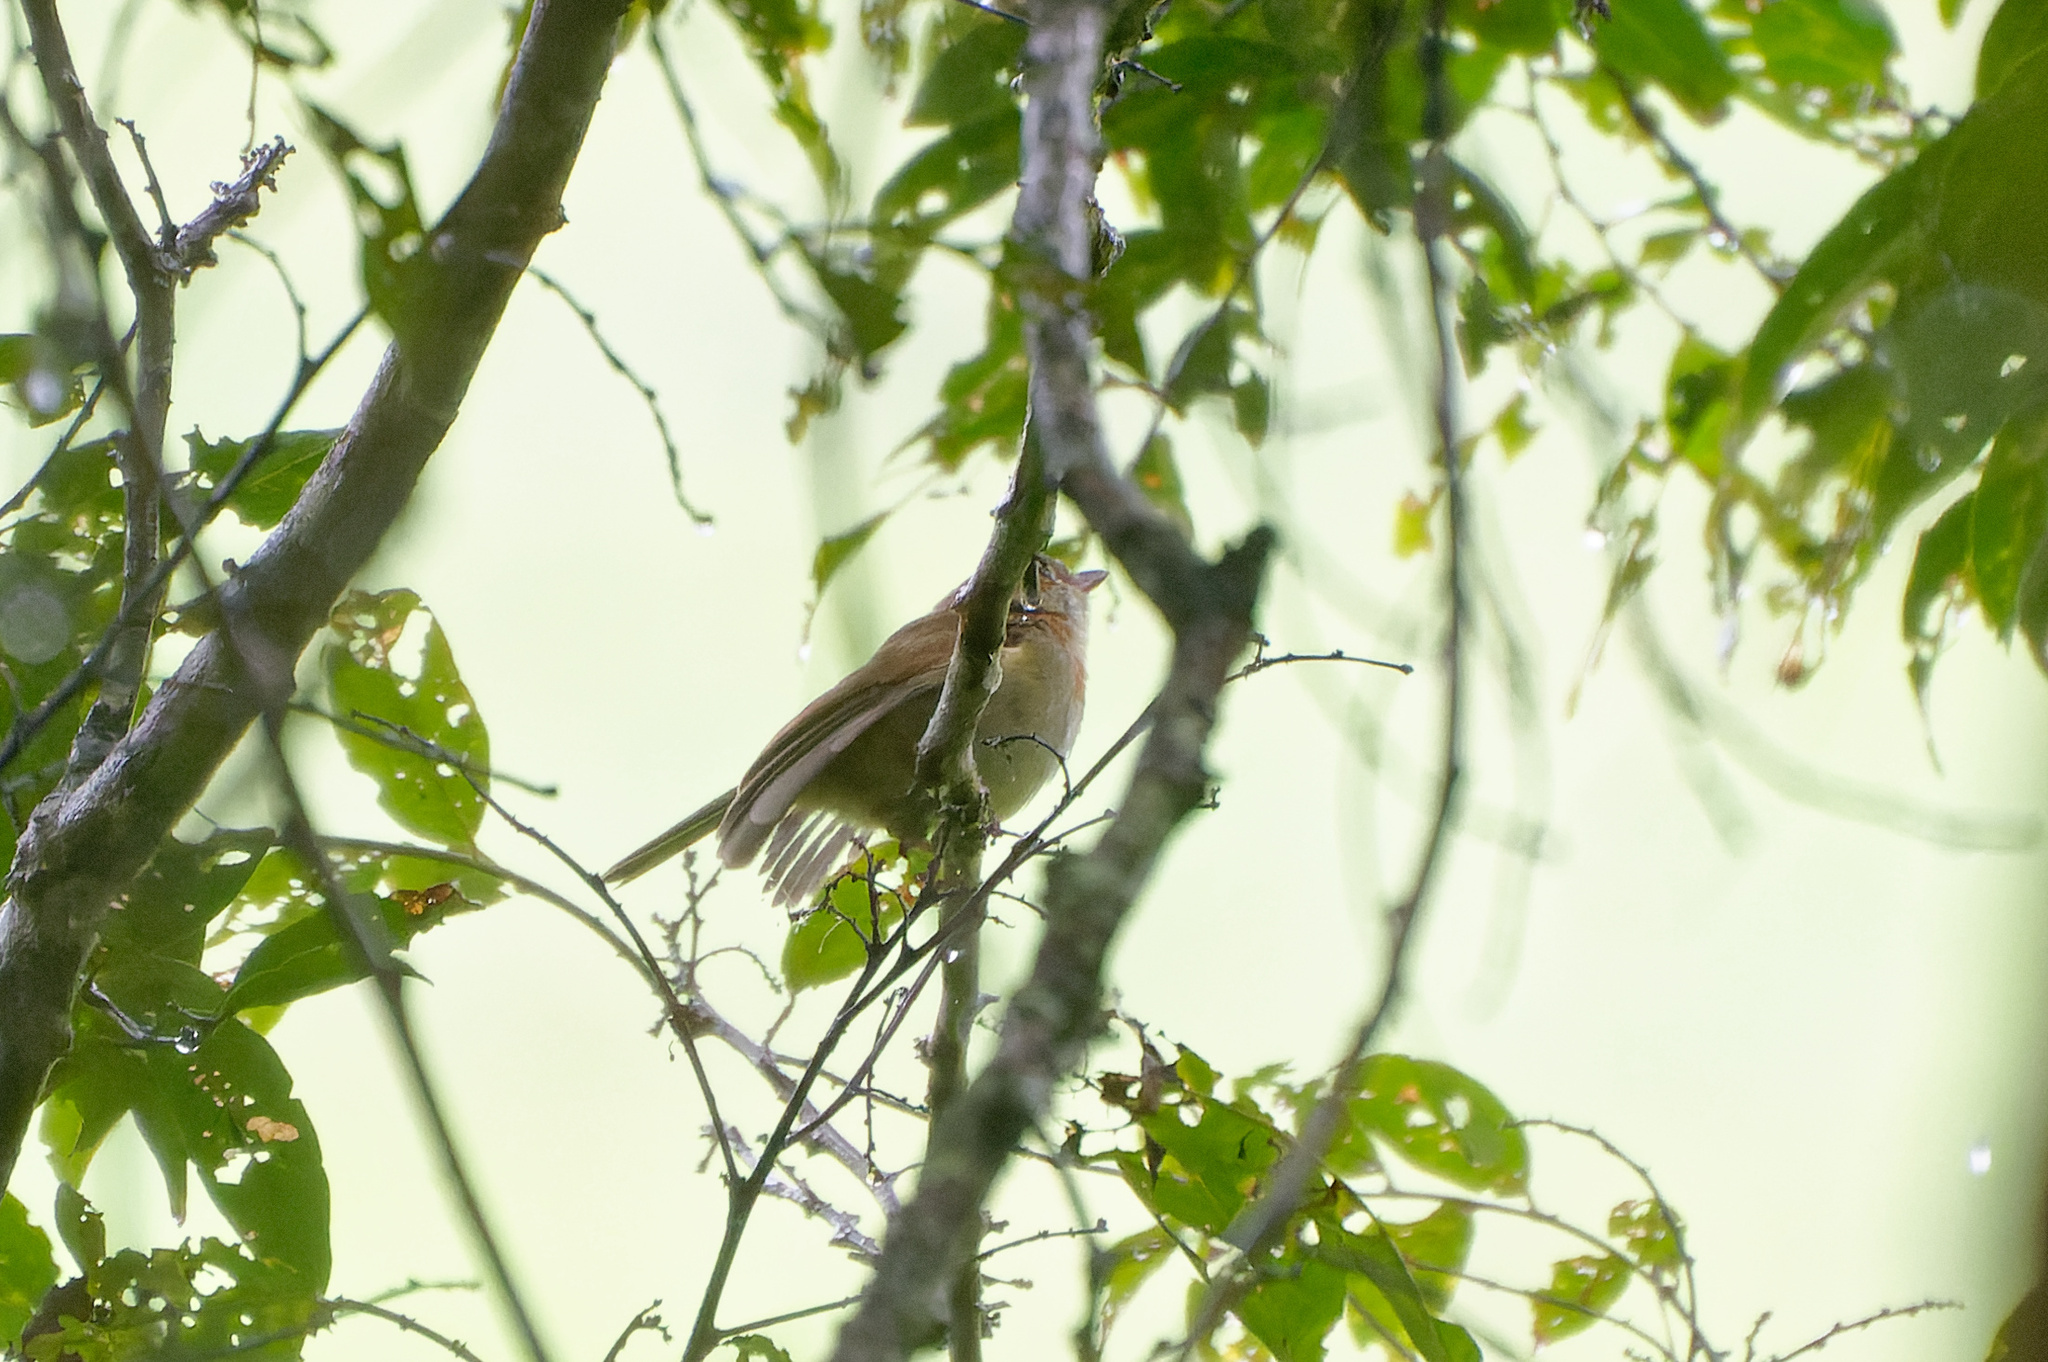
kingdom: Animalia
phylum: Chordata
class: Aves
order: Passeriformes
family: Pachycephalidae
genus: Pachycephala
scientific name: Pachycephala simplex
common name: Grey whistler
